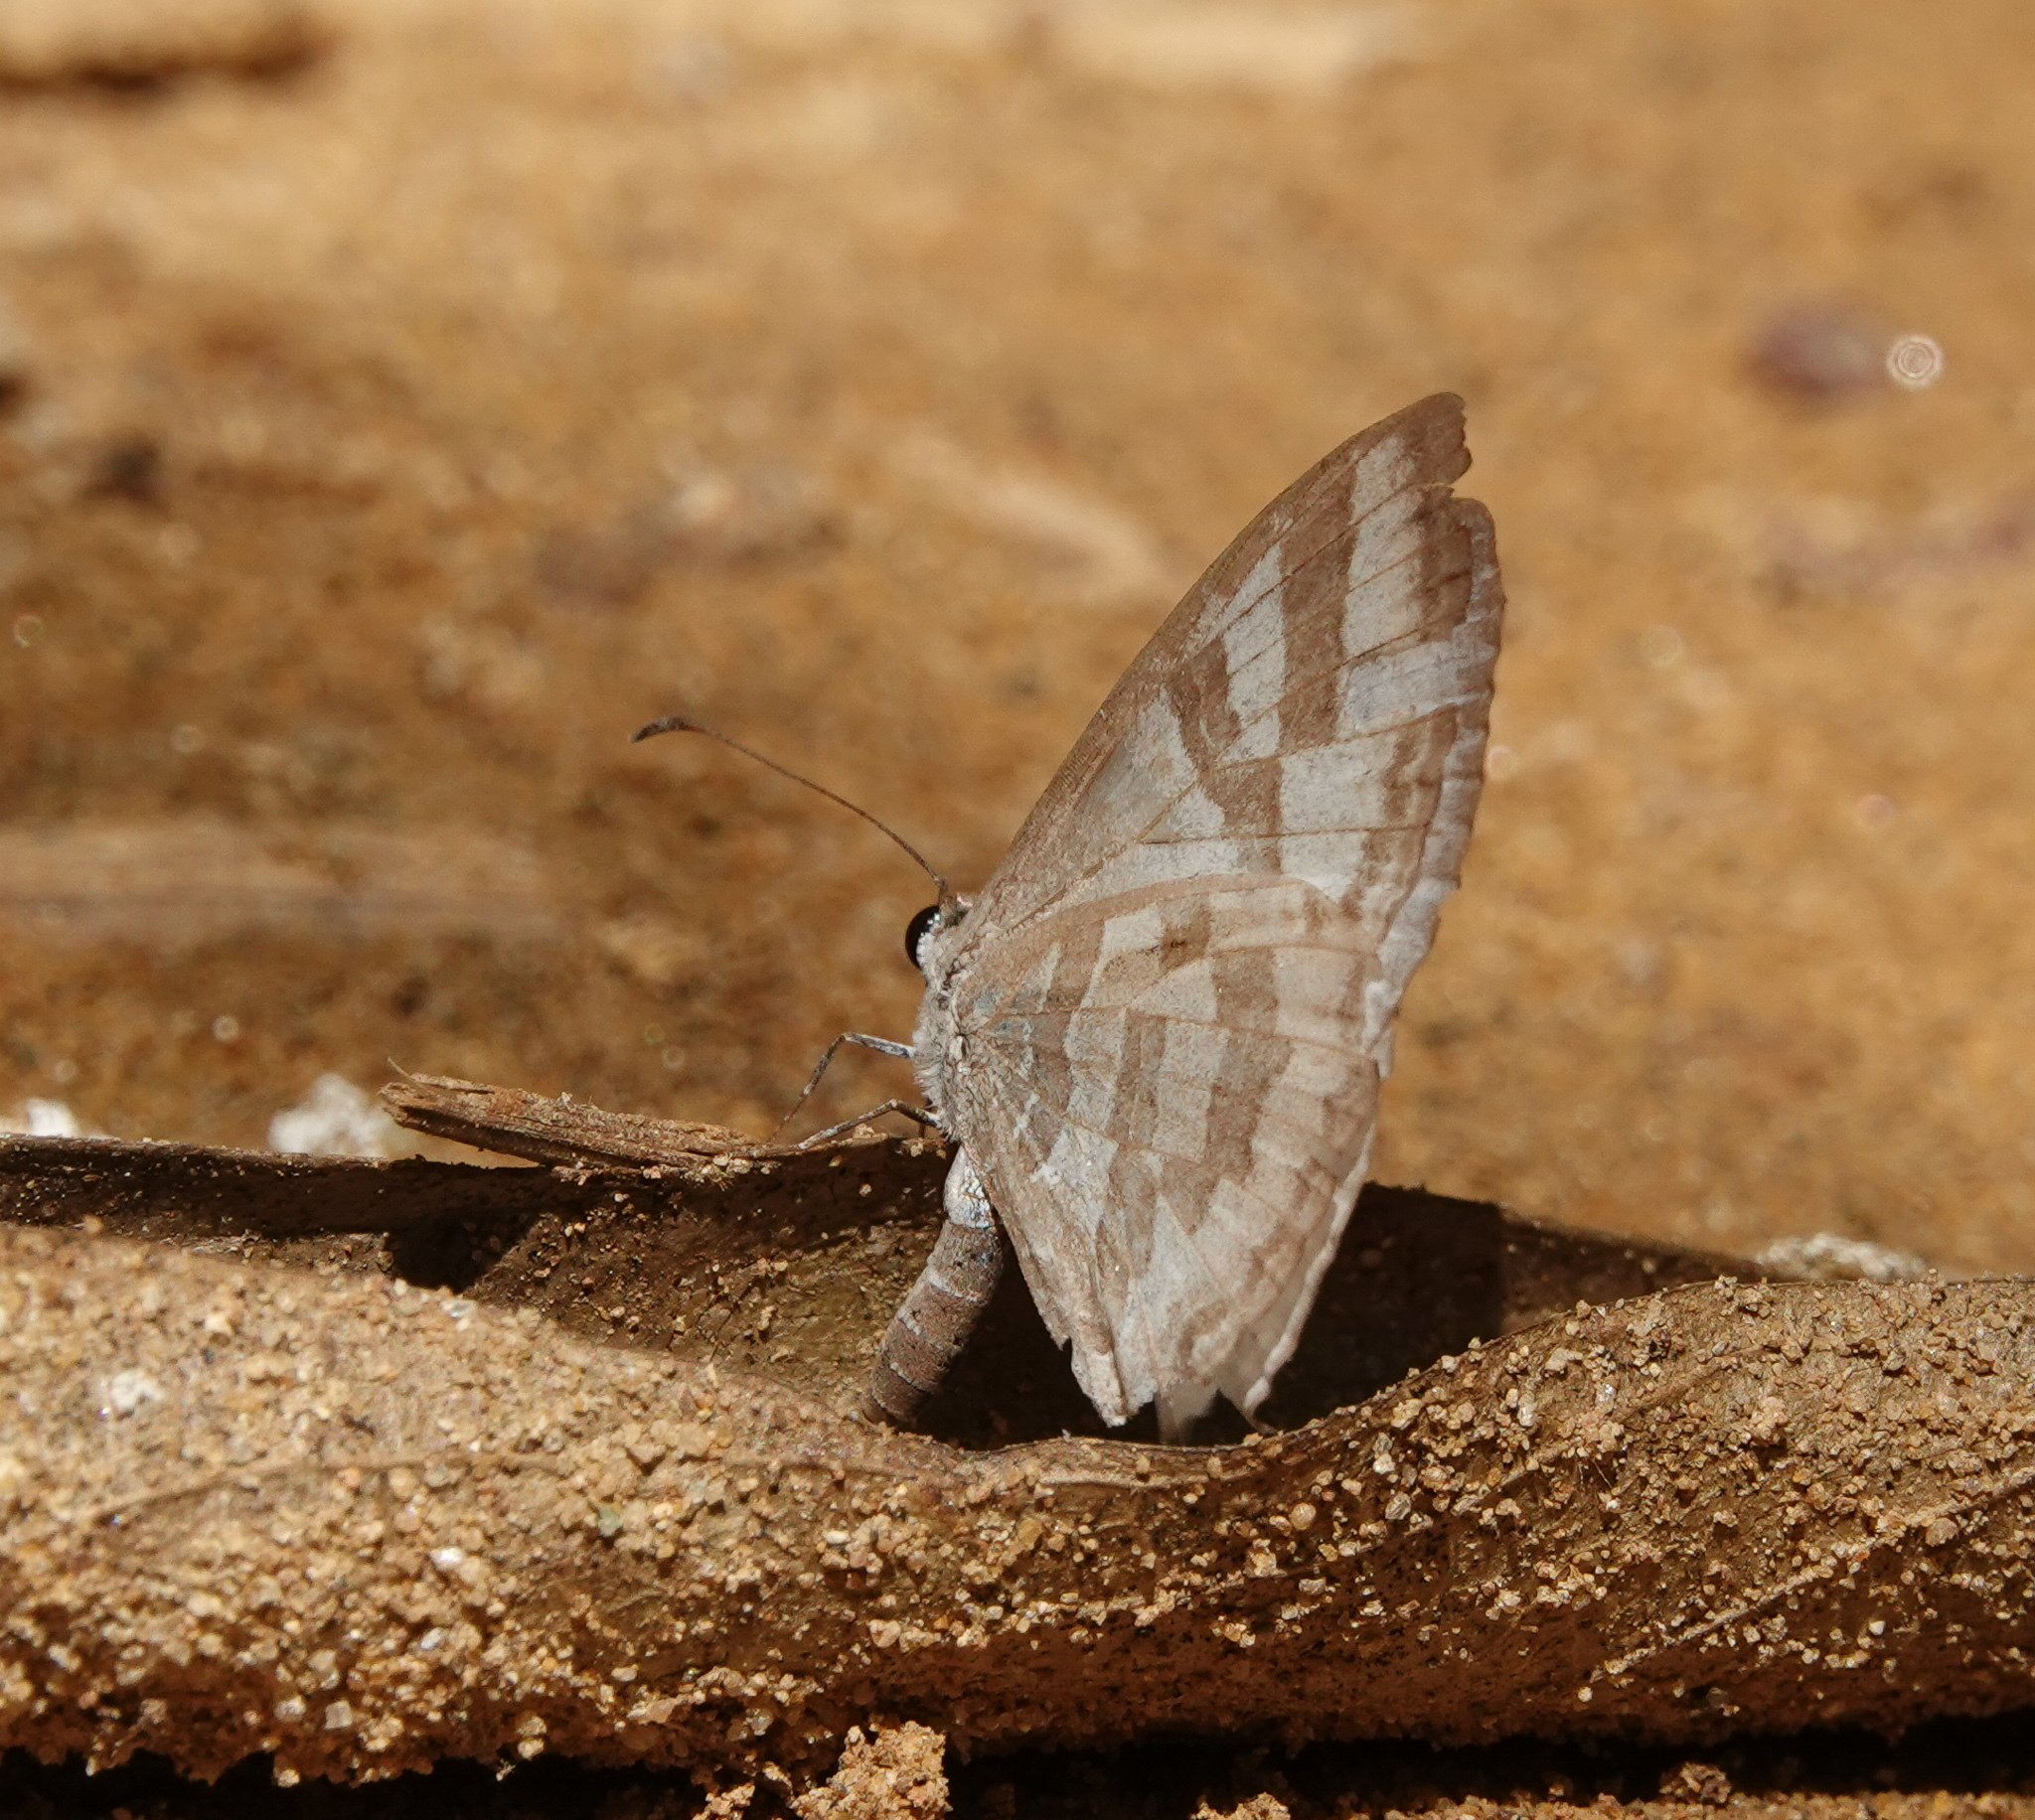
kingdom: Animalia
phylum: Arthropoda
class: Insecta
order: Lepidoptera
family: Lycaenidae
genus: Jamides
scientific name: Jamides celeno
